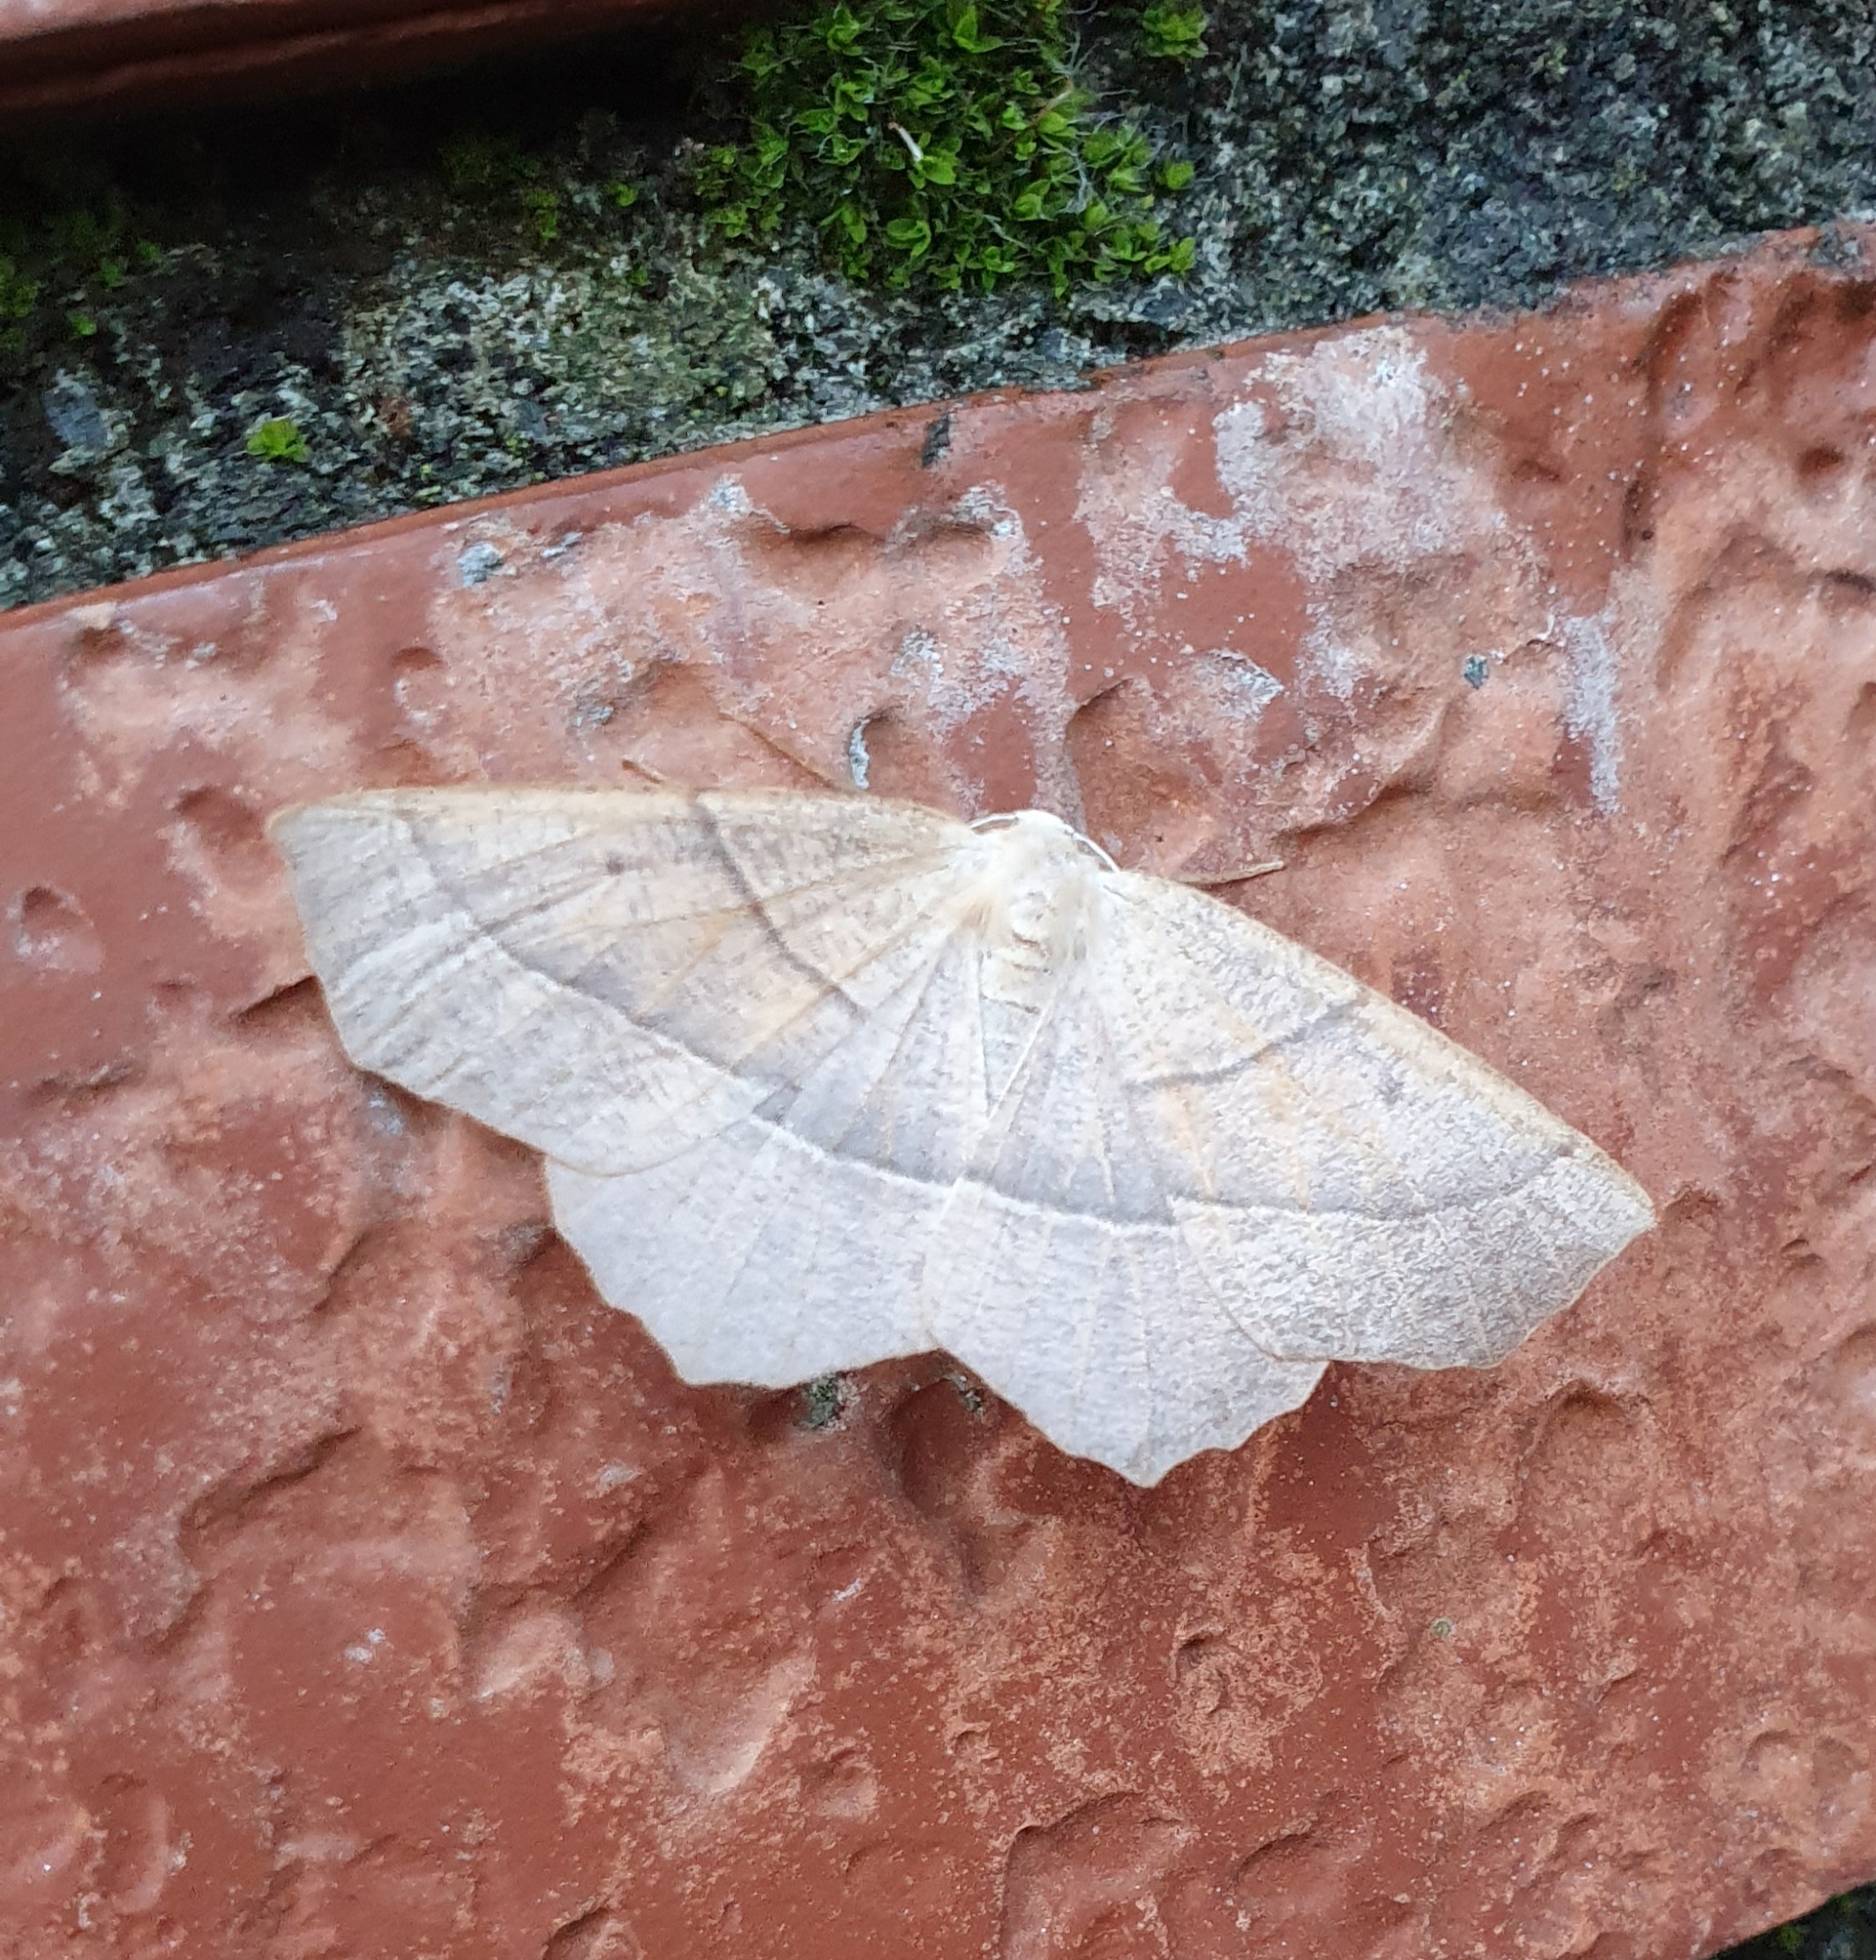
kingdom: Animalia
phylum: Arthropoda
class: Insecta
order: Lepidoptera
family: Geometridae
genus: Gerinia
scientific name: Gerinia honoraria
